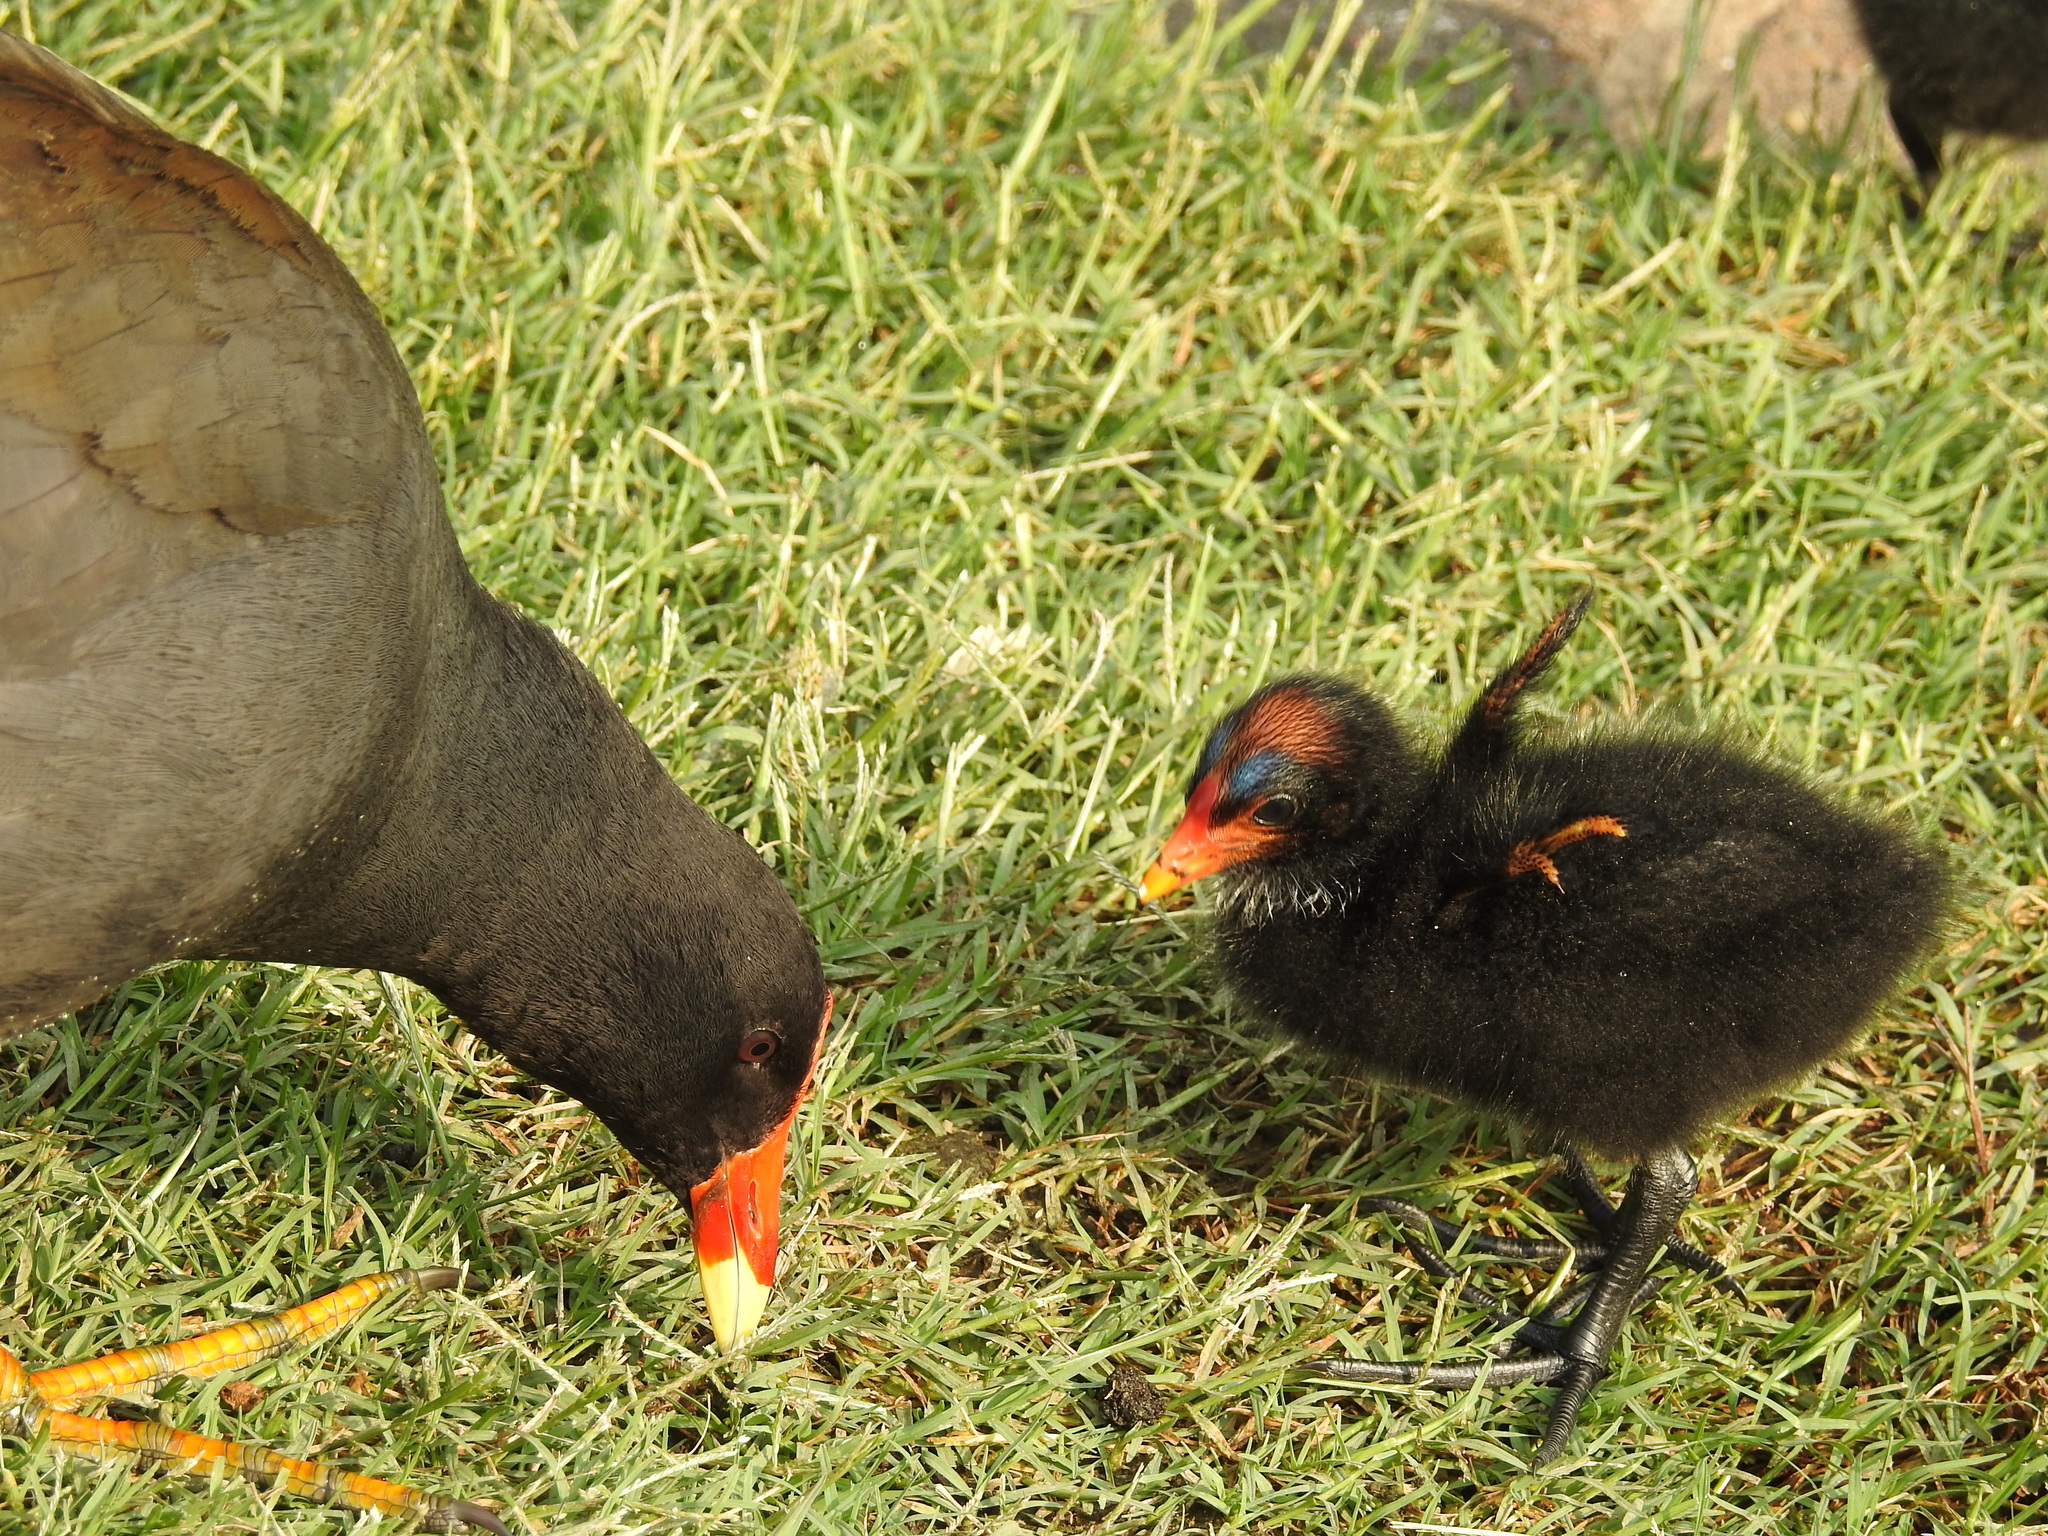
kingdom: Animalia
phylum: Chordata
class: Aves
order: Gruiformes
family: Rallidae
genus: Gallinula
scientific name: Gallinula tenebrosa
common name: Dusky moorhen
